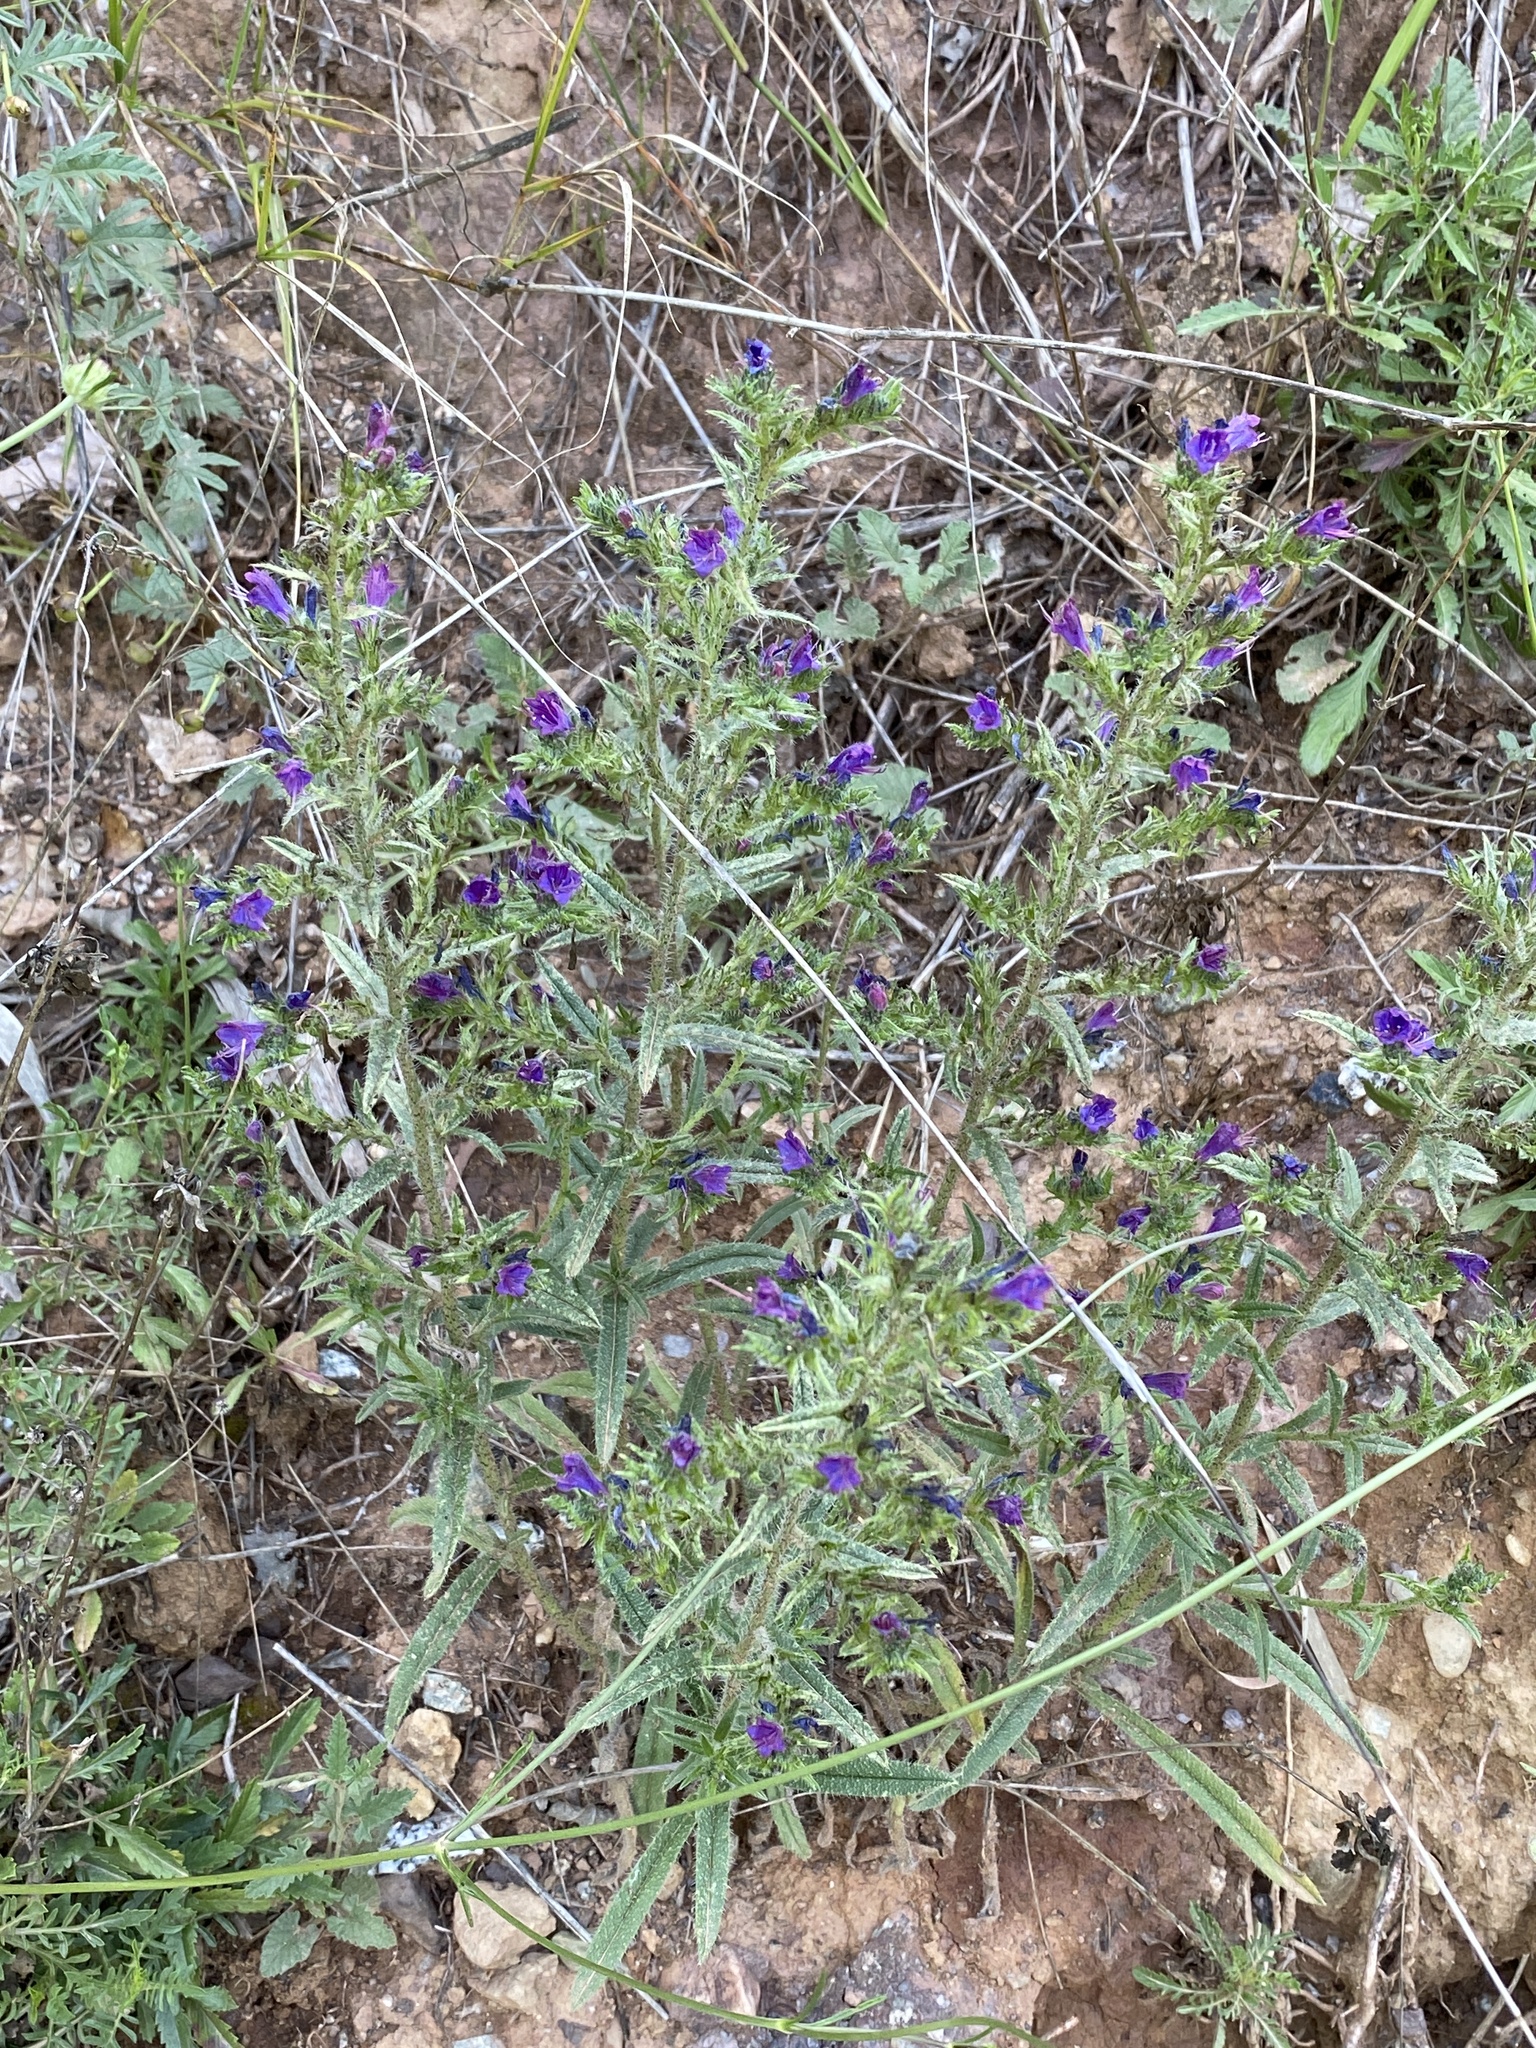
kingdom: Plantae
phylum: Tracheophyta
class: Magnoliopsida
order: Boraginales
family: Boraginaceae
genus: Echium
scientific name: Echium vulgare
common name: Common viper's bugloss
